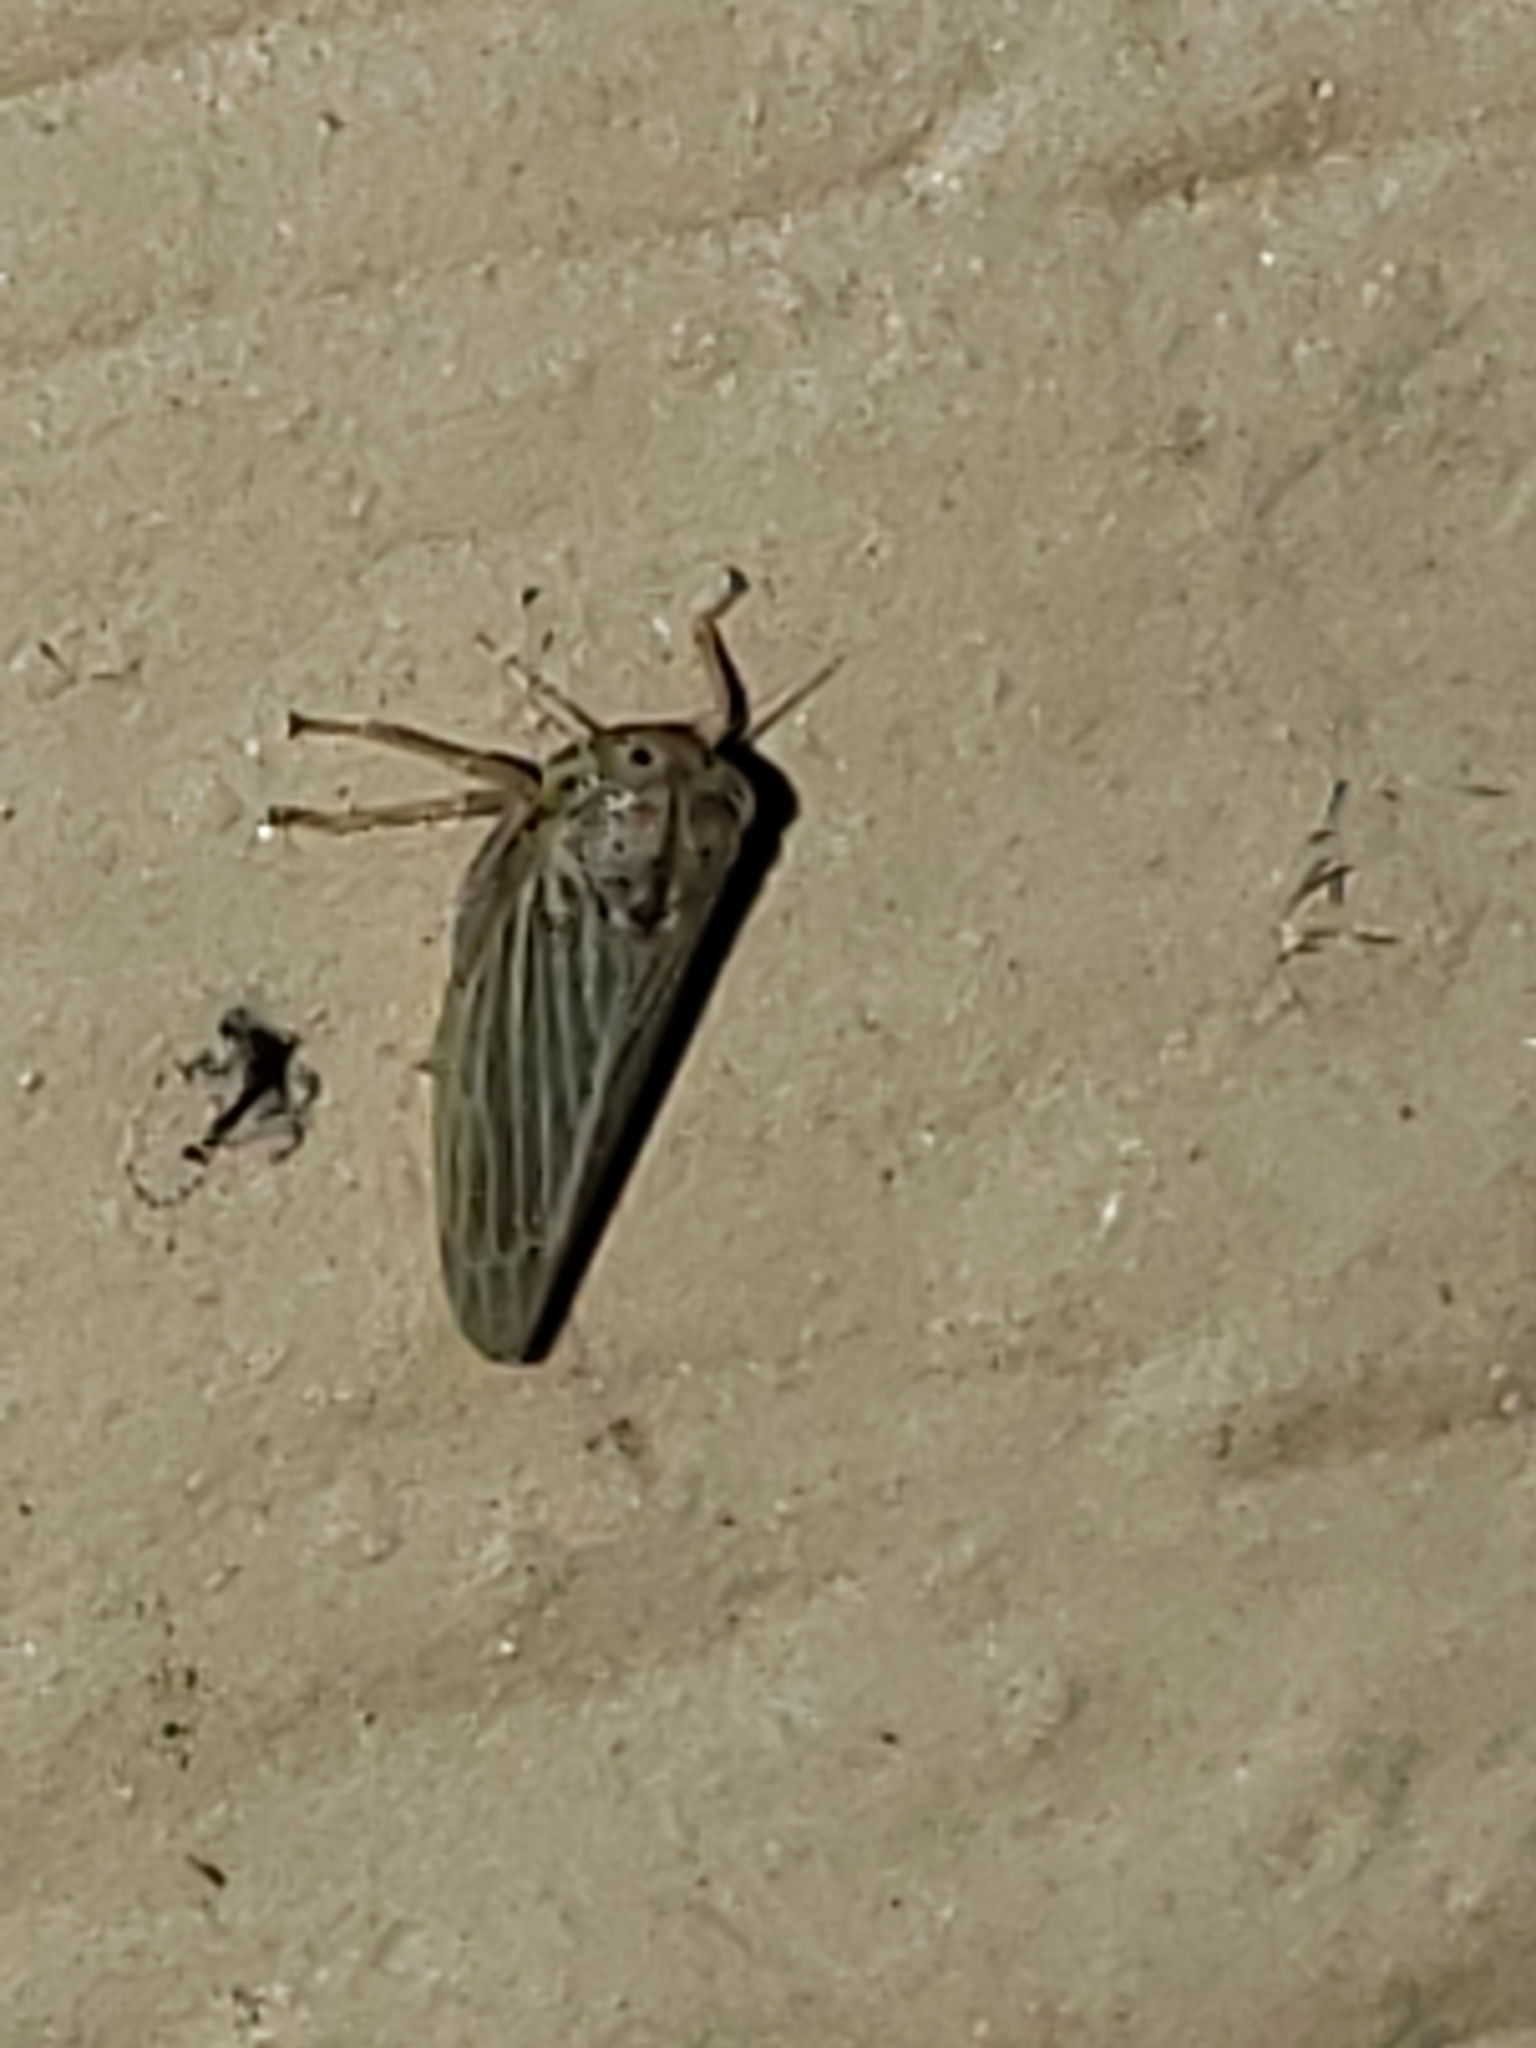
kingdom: Animalia
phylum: Arthropoda
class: Insecta
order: Hemiptera
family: Cicadellidae
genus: Agallia
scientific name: Agallia constricta
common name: The constricted leafhopper
